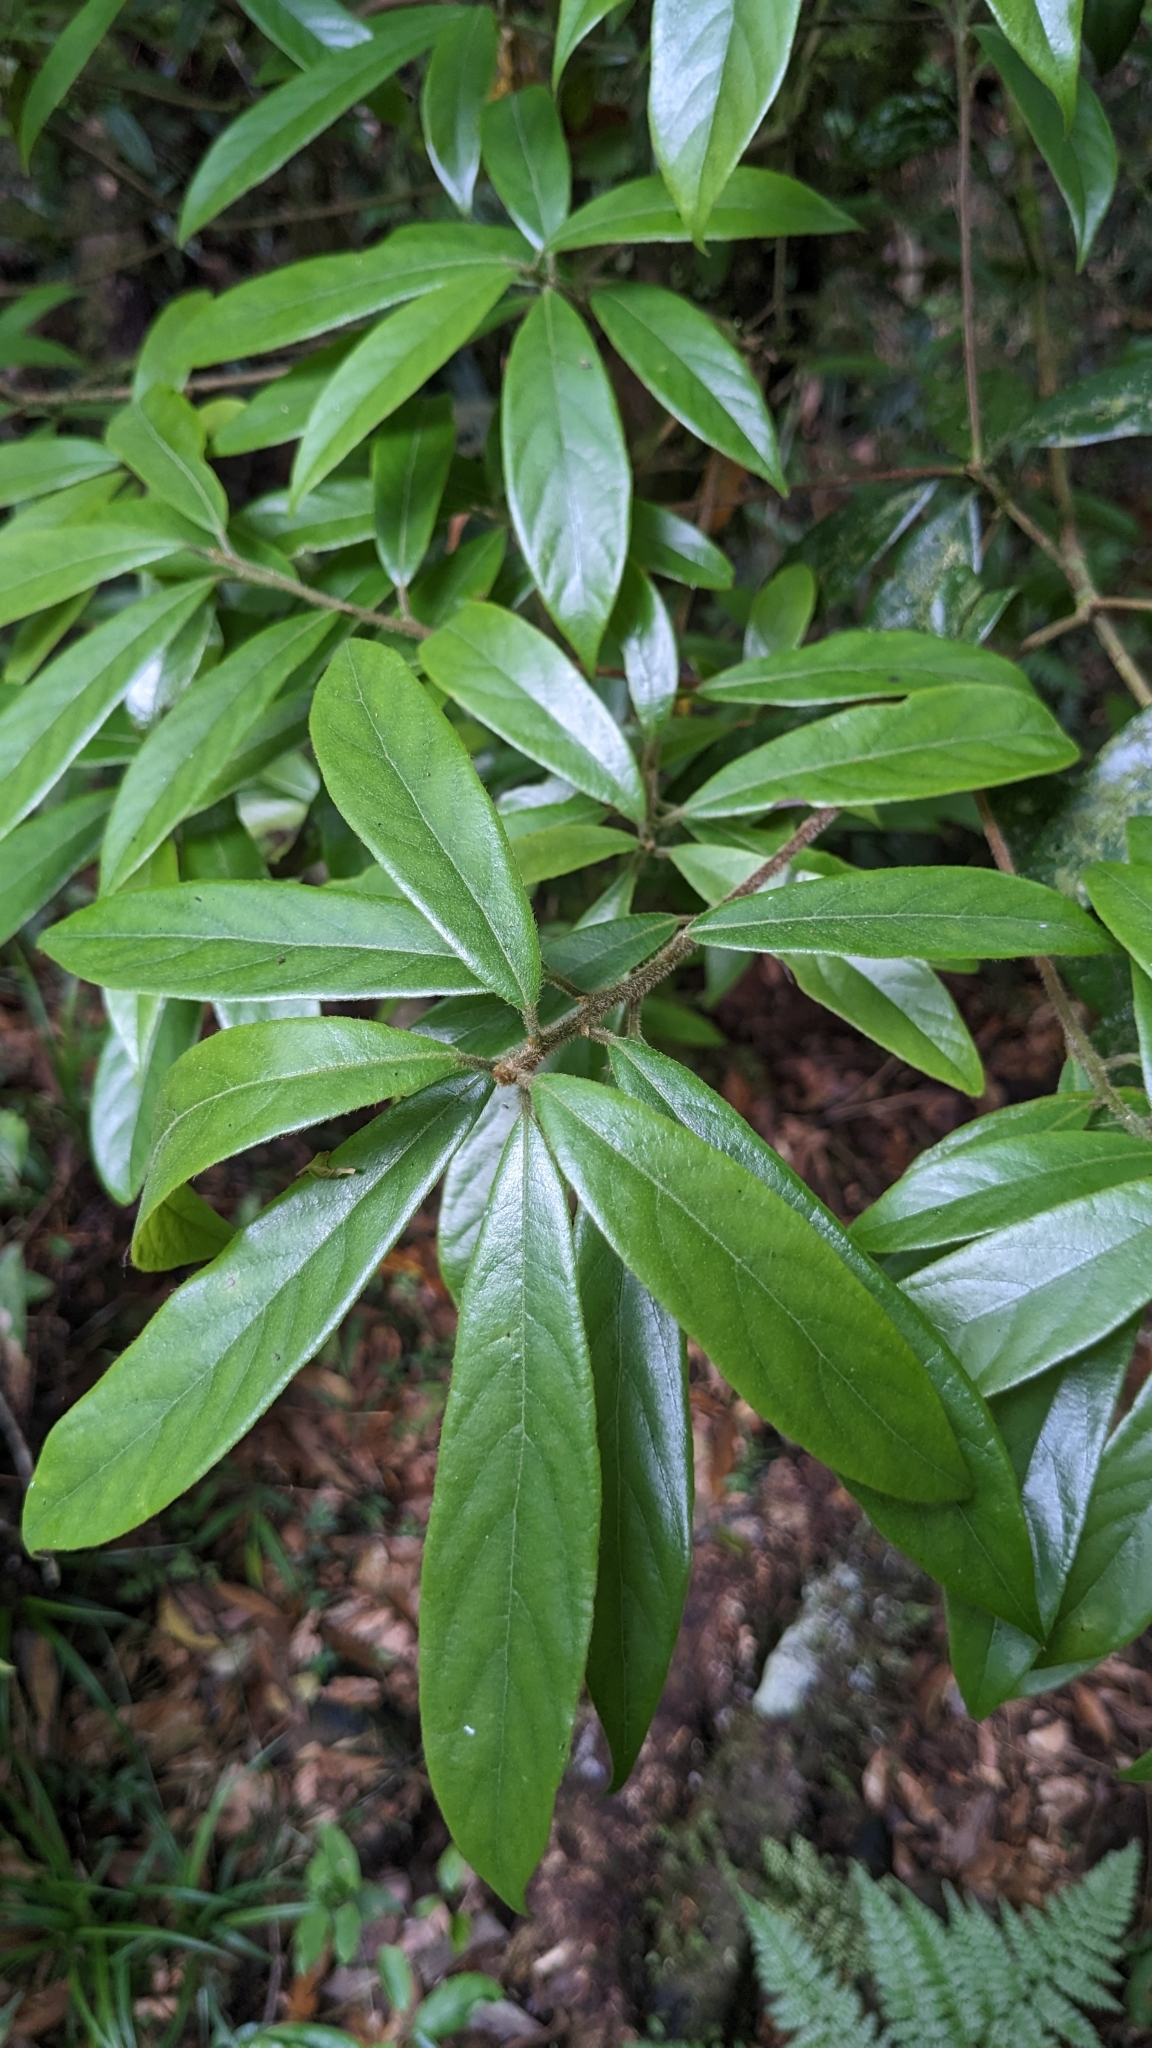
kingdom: Plantae
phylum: Tracheophyta
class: Magnoliopsida
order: Laurales
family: Lauraceae
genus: Actinodaphne
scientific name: Actinodaphne mushaensis
